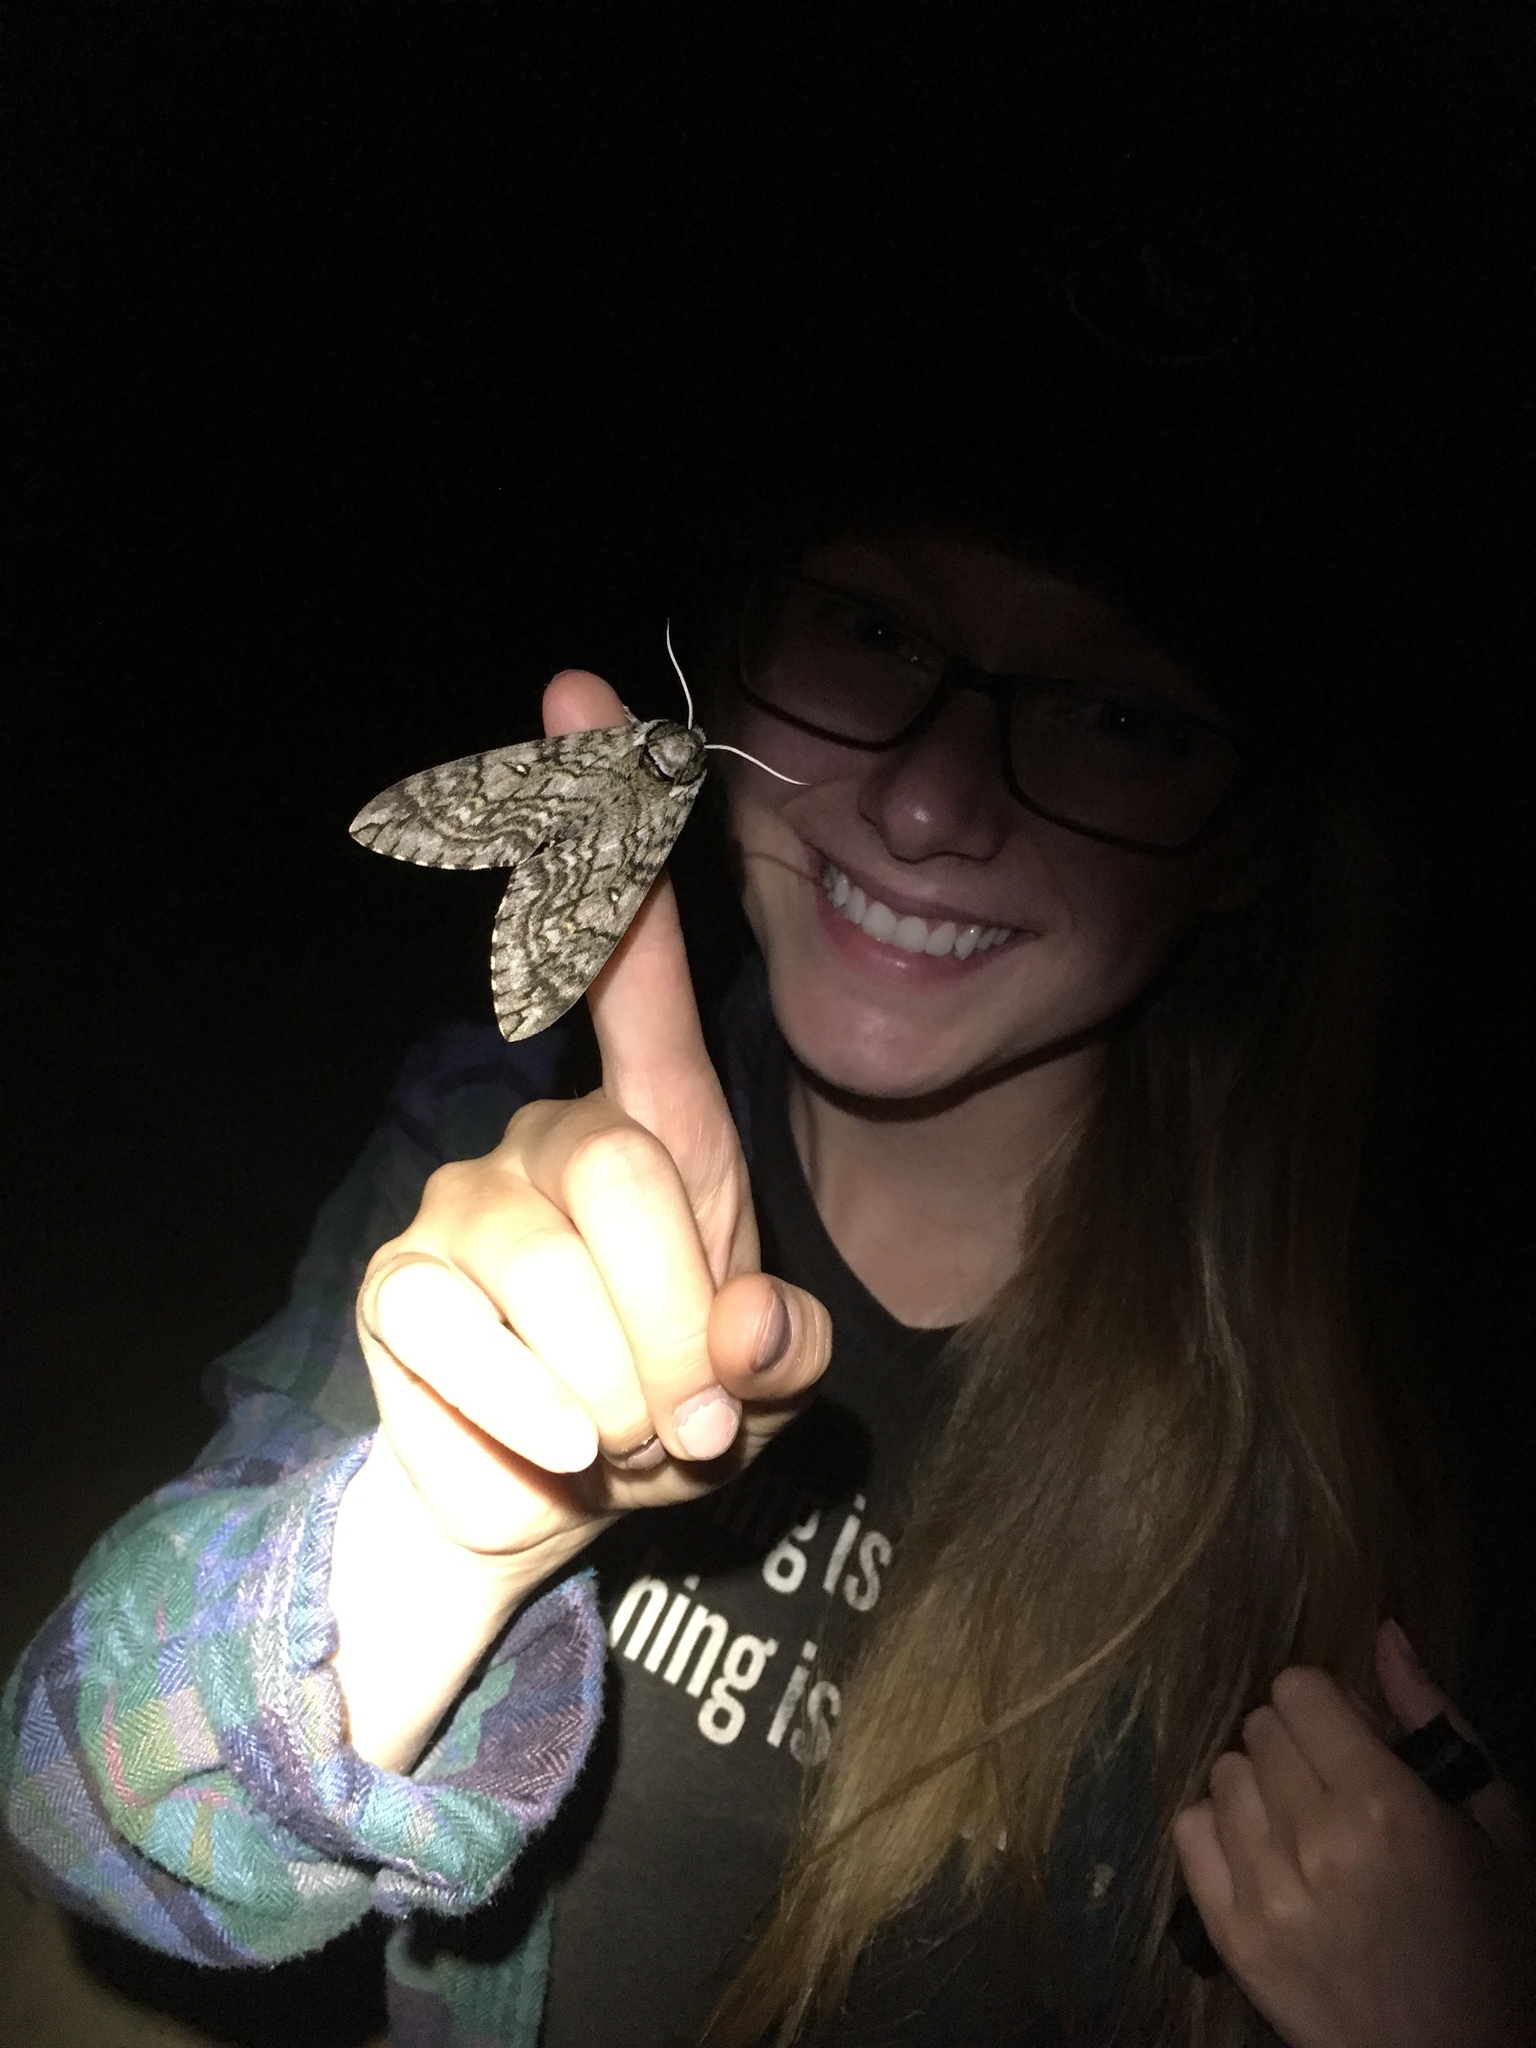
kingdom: Animalia
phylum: Arthropoda
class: Insecta
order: Lepidoptera
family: Sphingidae
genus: Ceratomia
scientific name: Ceratomia undulosa
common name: Waved sphinx
